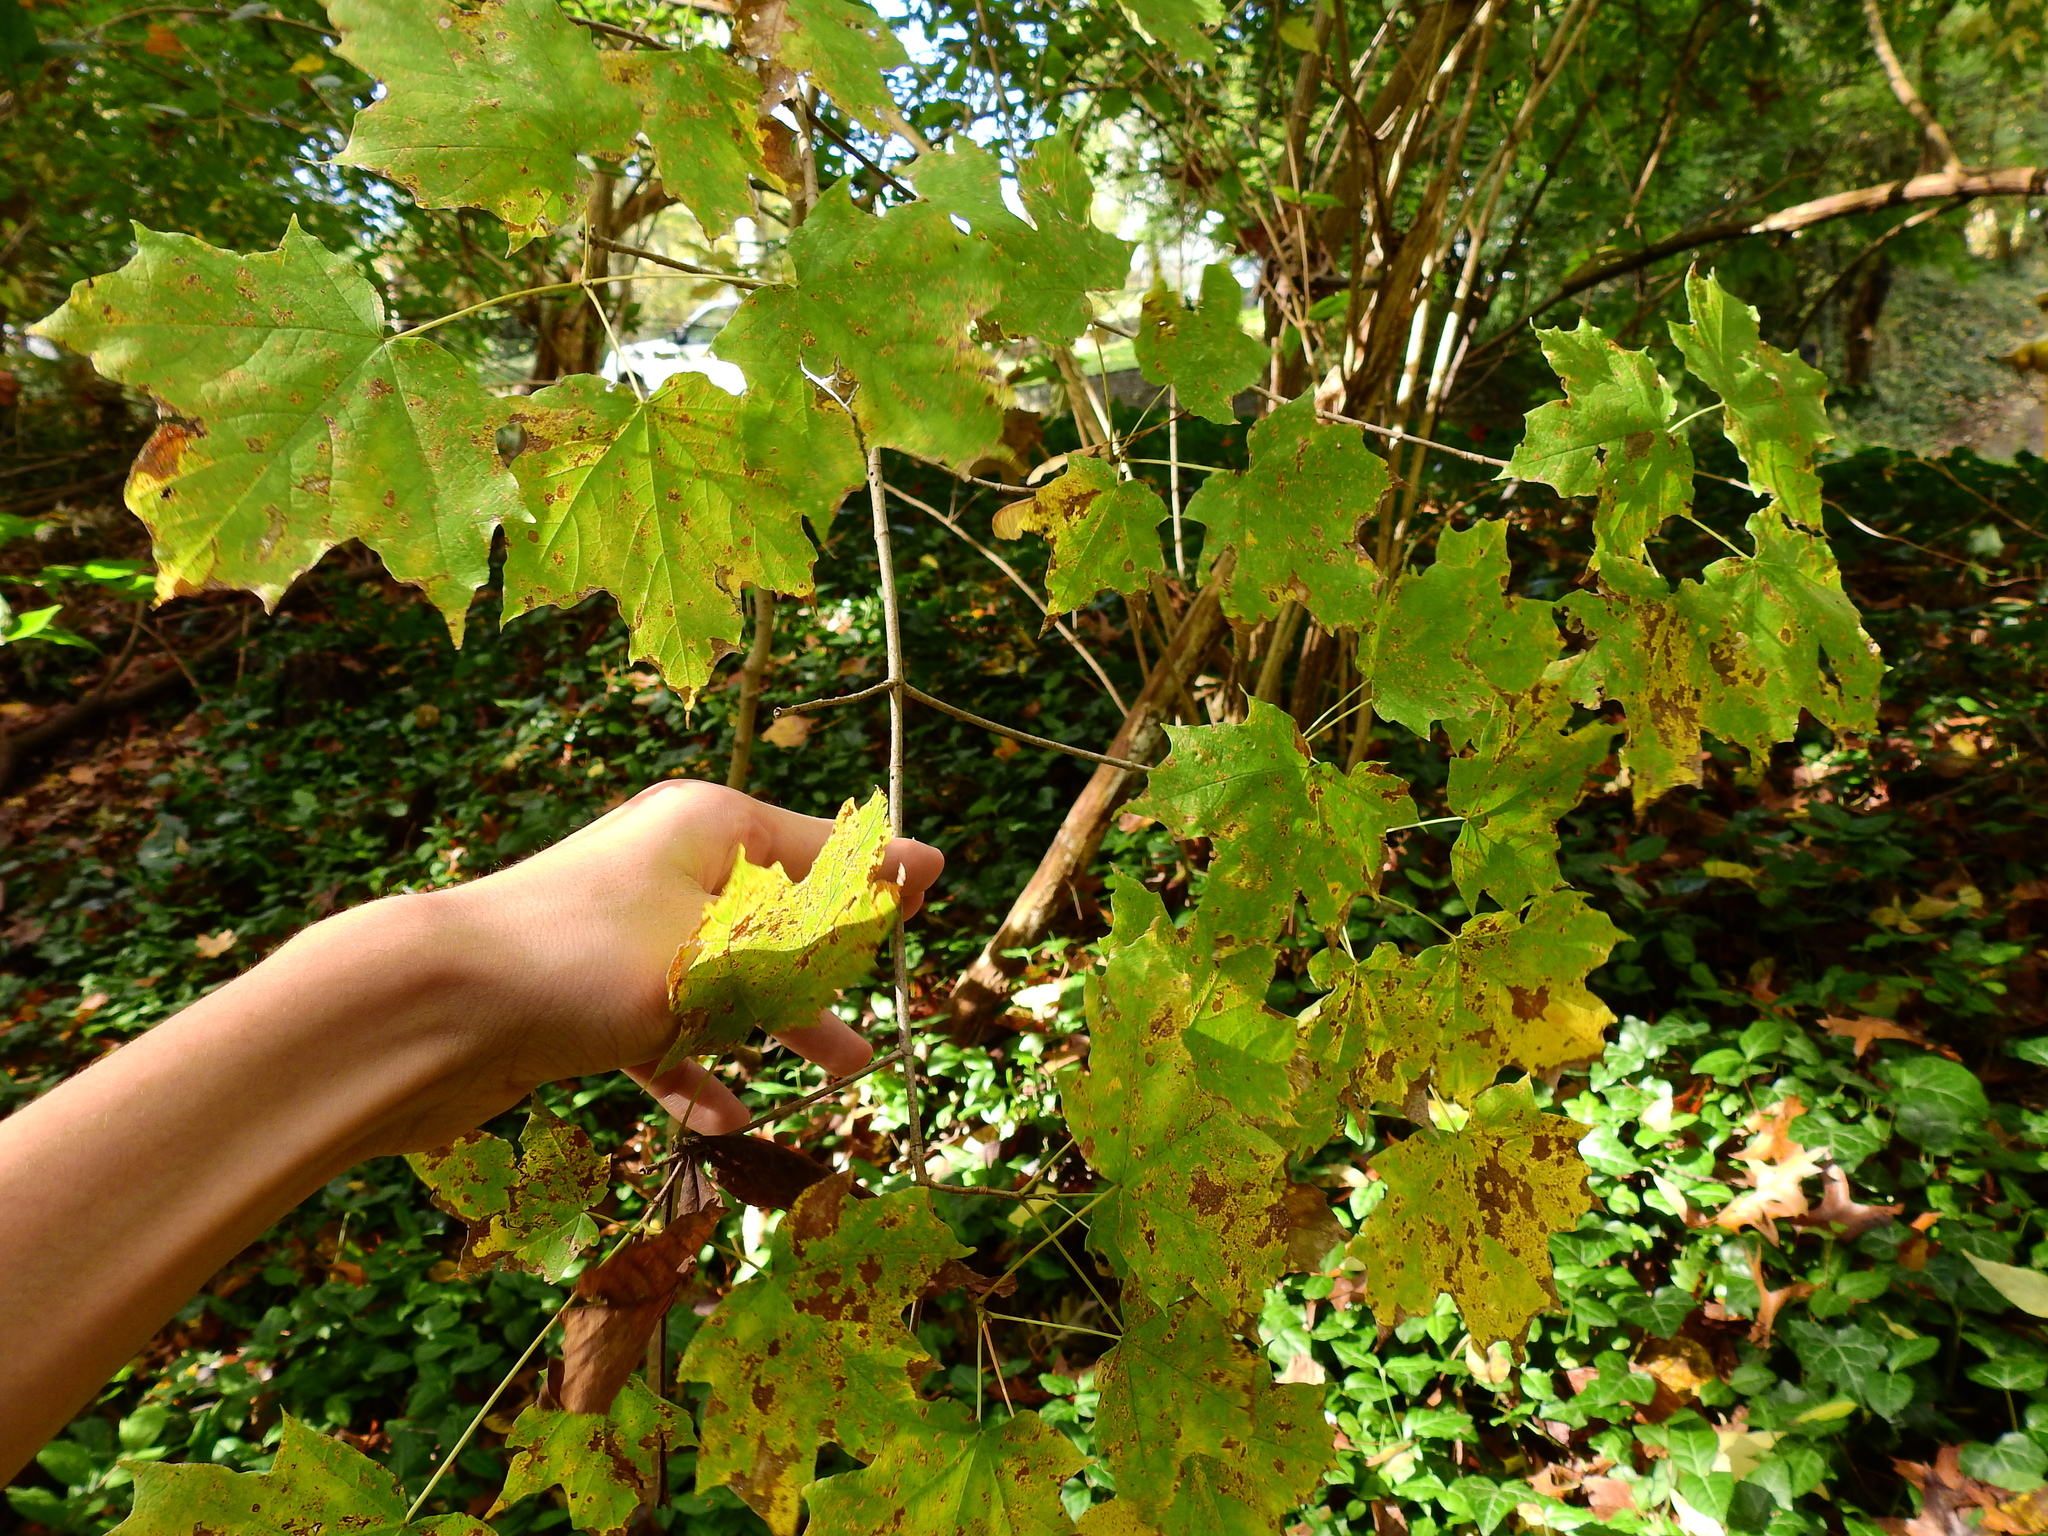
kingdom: Plantae
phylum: Tracheophyta
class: Magnoliopsida
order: Sapindales
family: Sapindaceae
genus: Acer
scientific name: Acer saccharum
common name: Sugar maple
